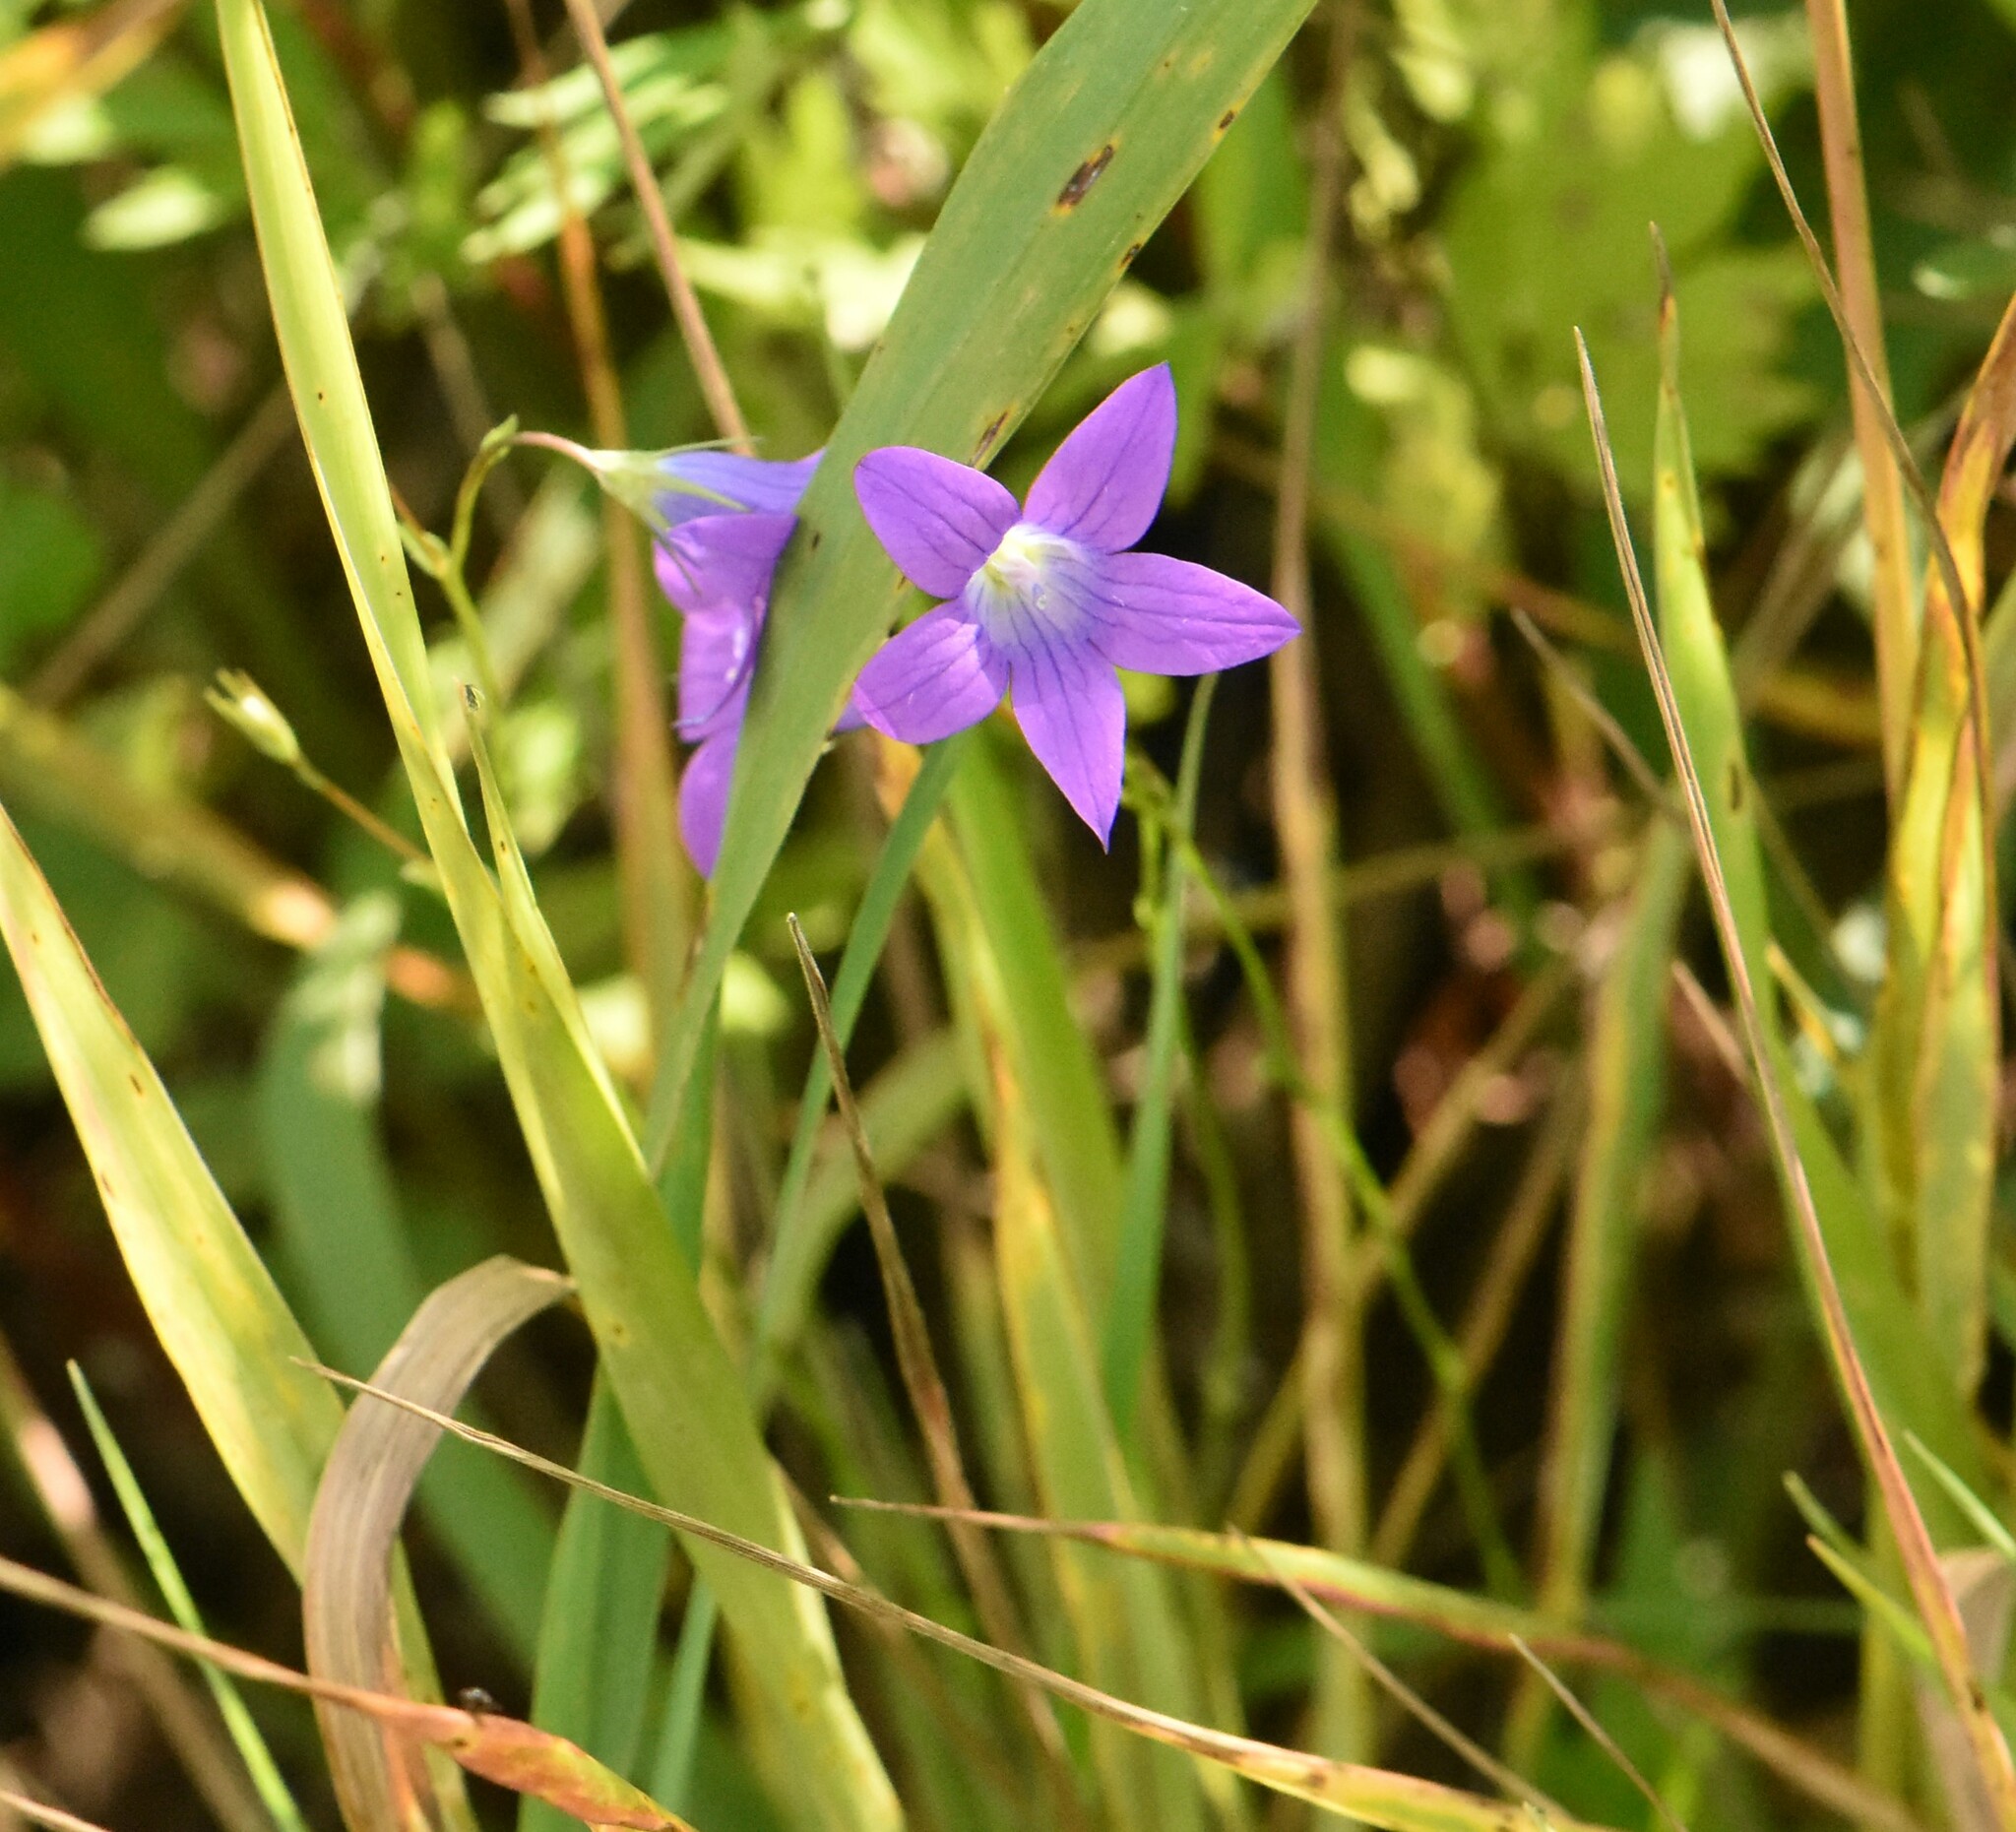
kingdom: Plantae
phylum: Tracheophyta
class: Magnoliopsida
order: Asterales
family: Campanulaceae
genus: Campanula
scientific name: Campanula patula
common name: Spreading bellflower
